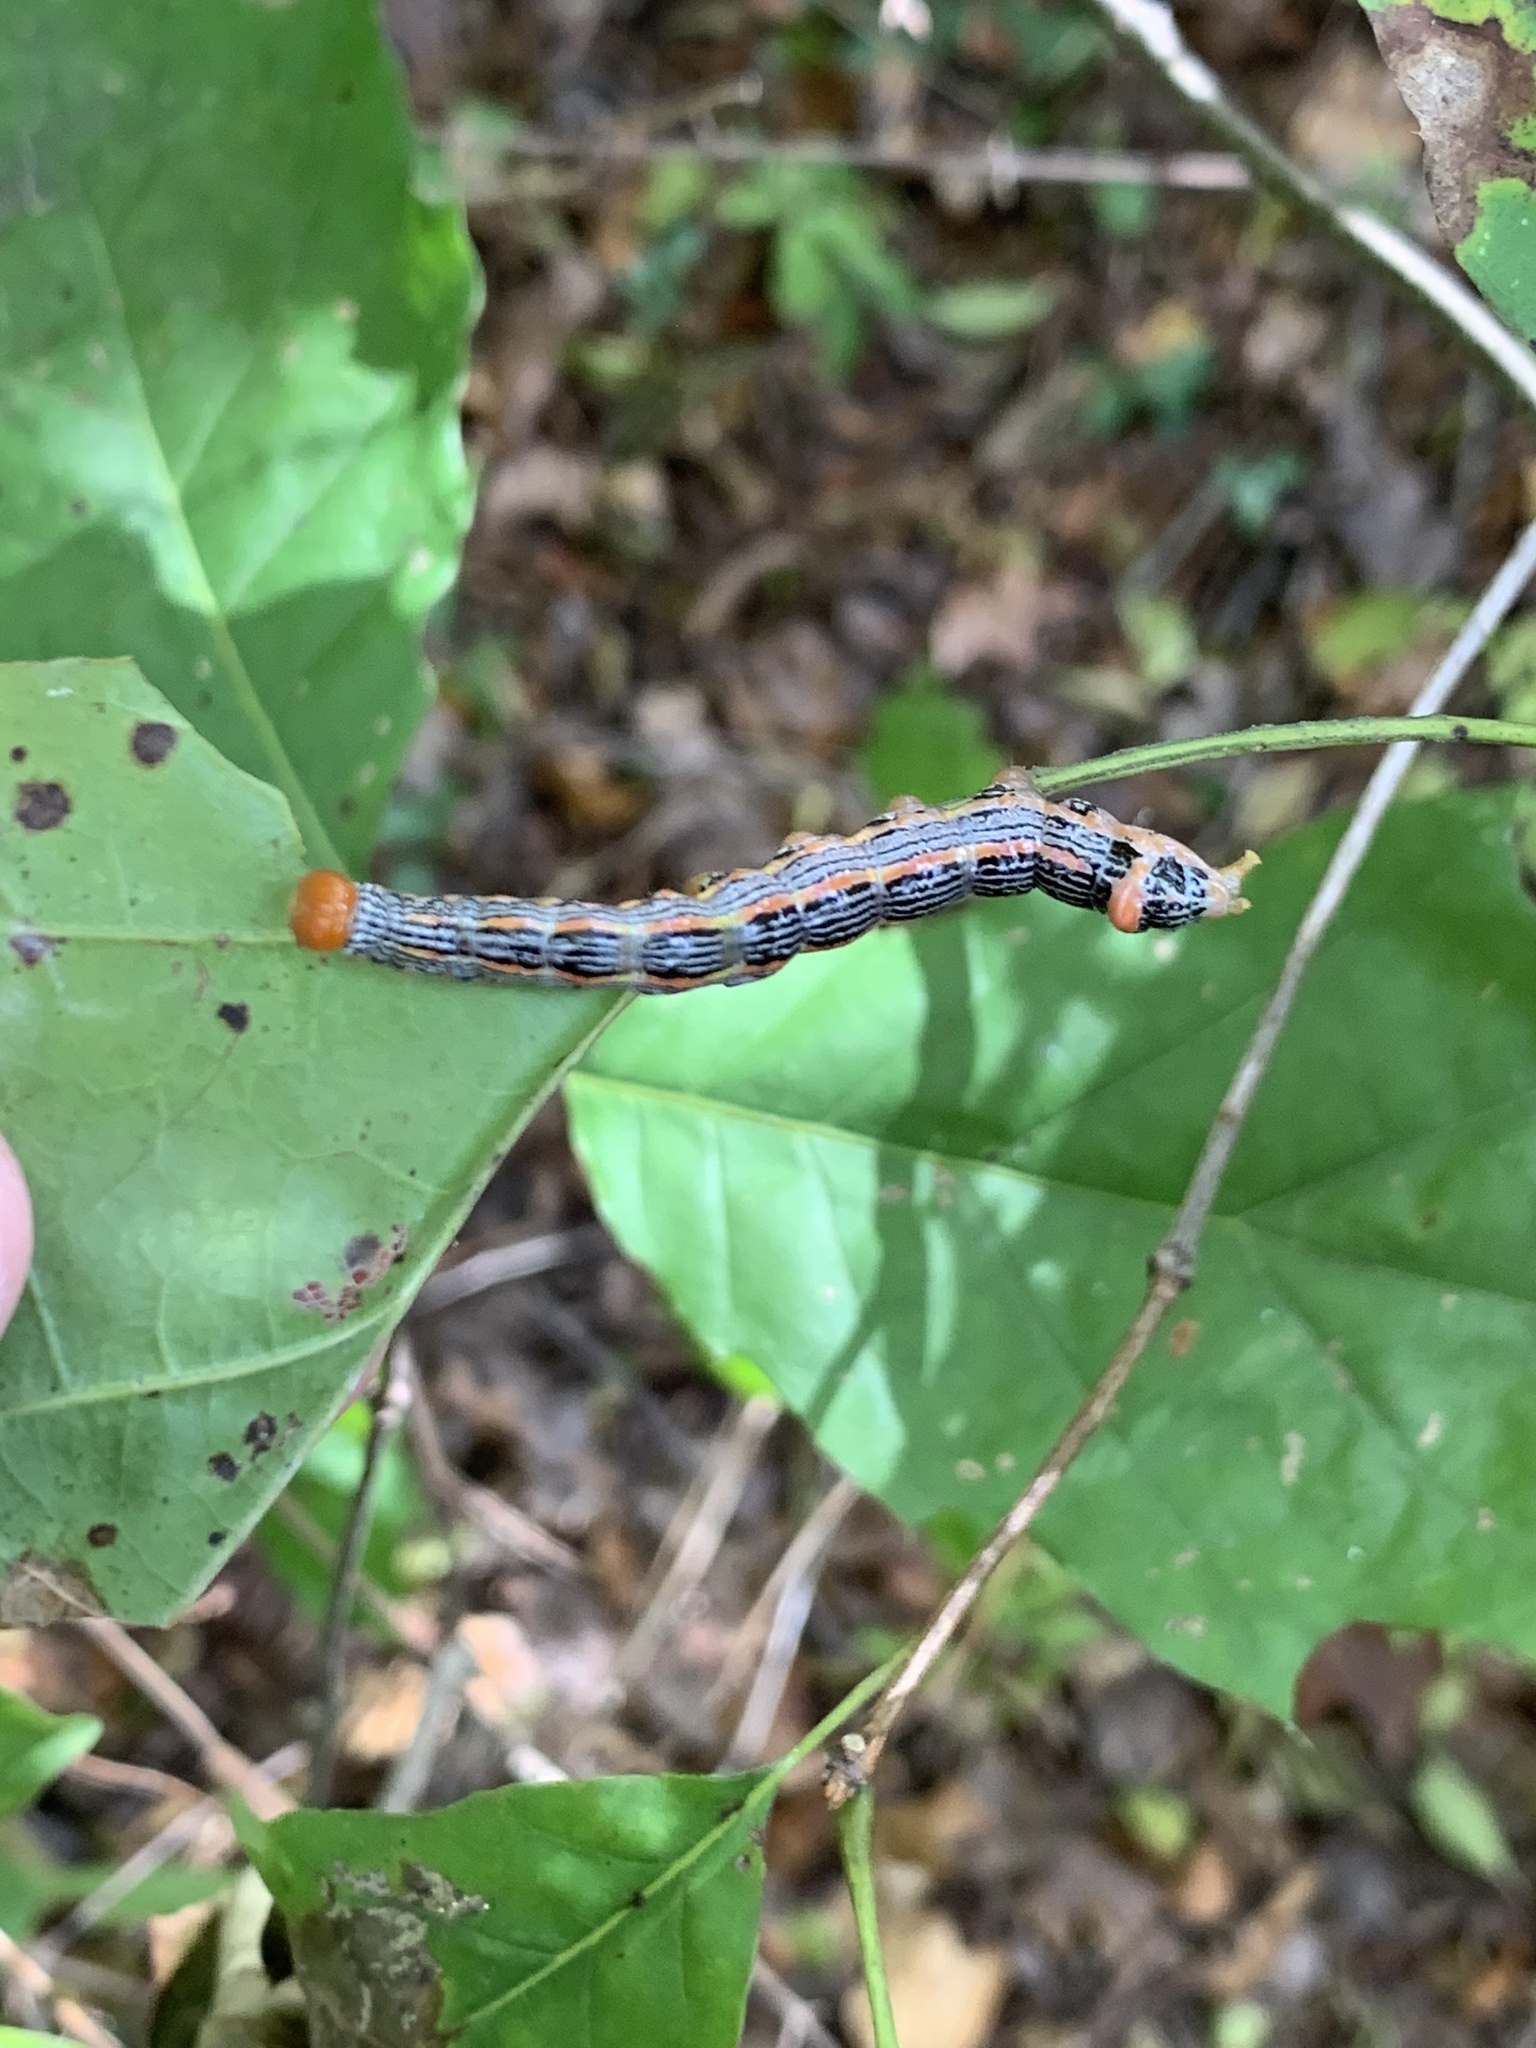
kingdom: Animalia
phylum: Arthropoda
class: Insecta
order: Lepidoptera
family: Notodontidae
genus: Symmerista
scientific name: Symmerista albifrons
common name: White-headed prominent
